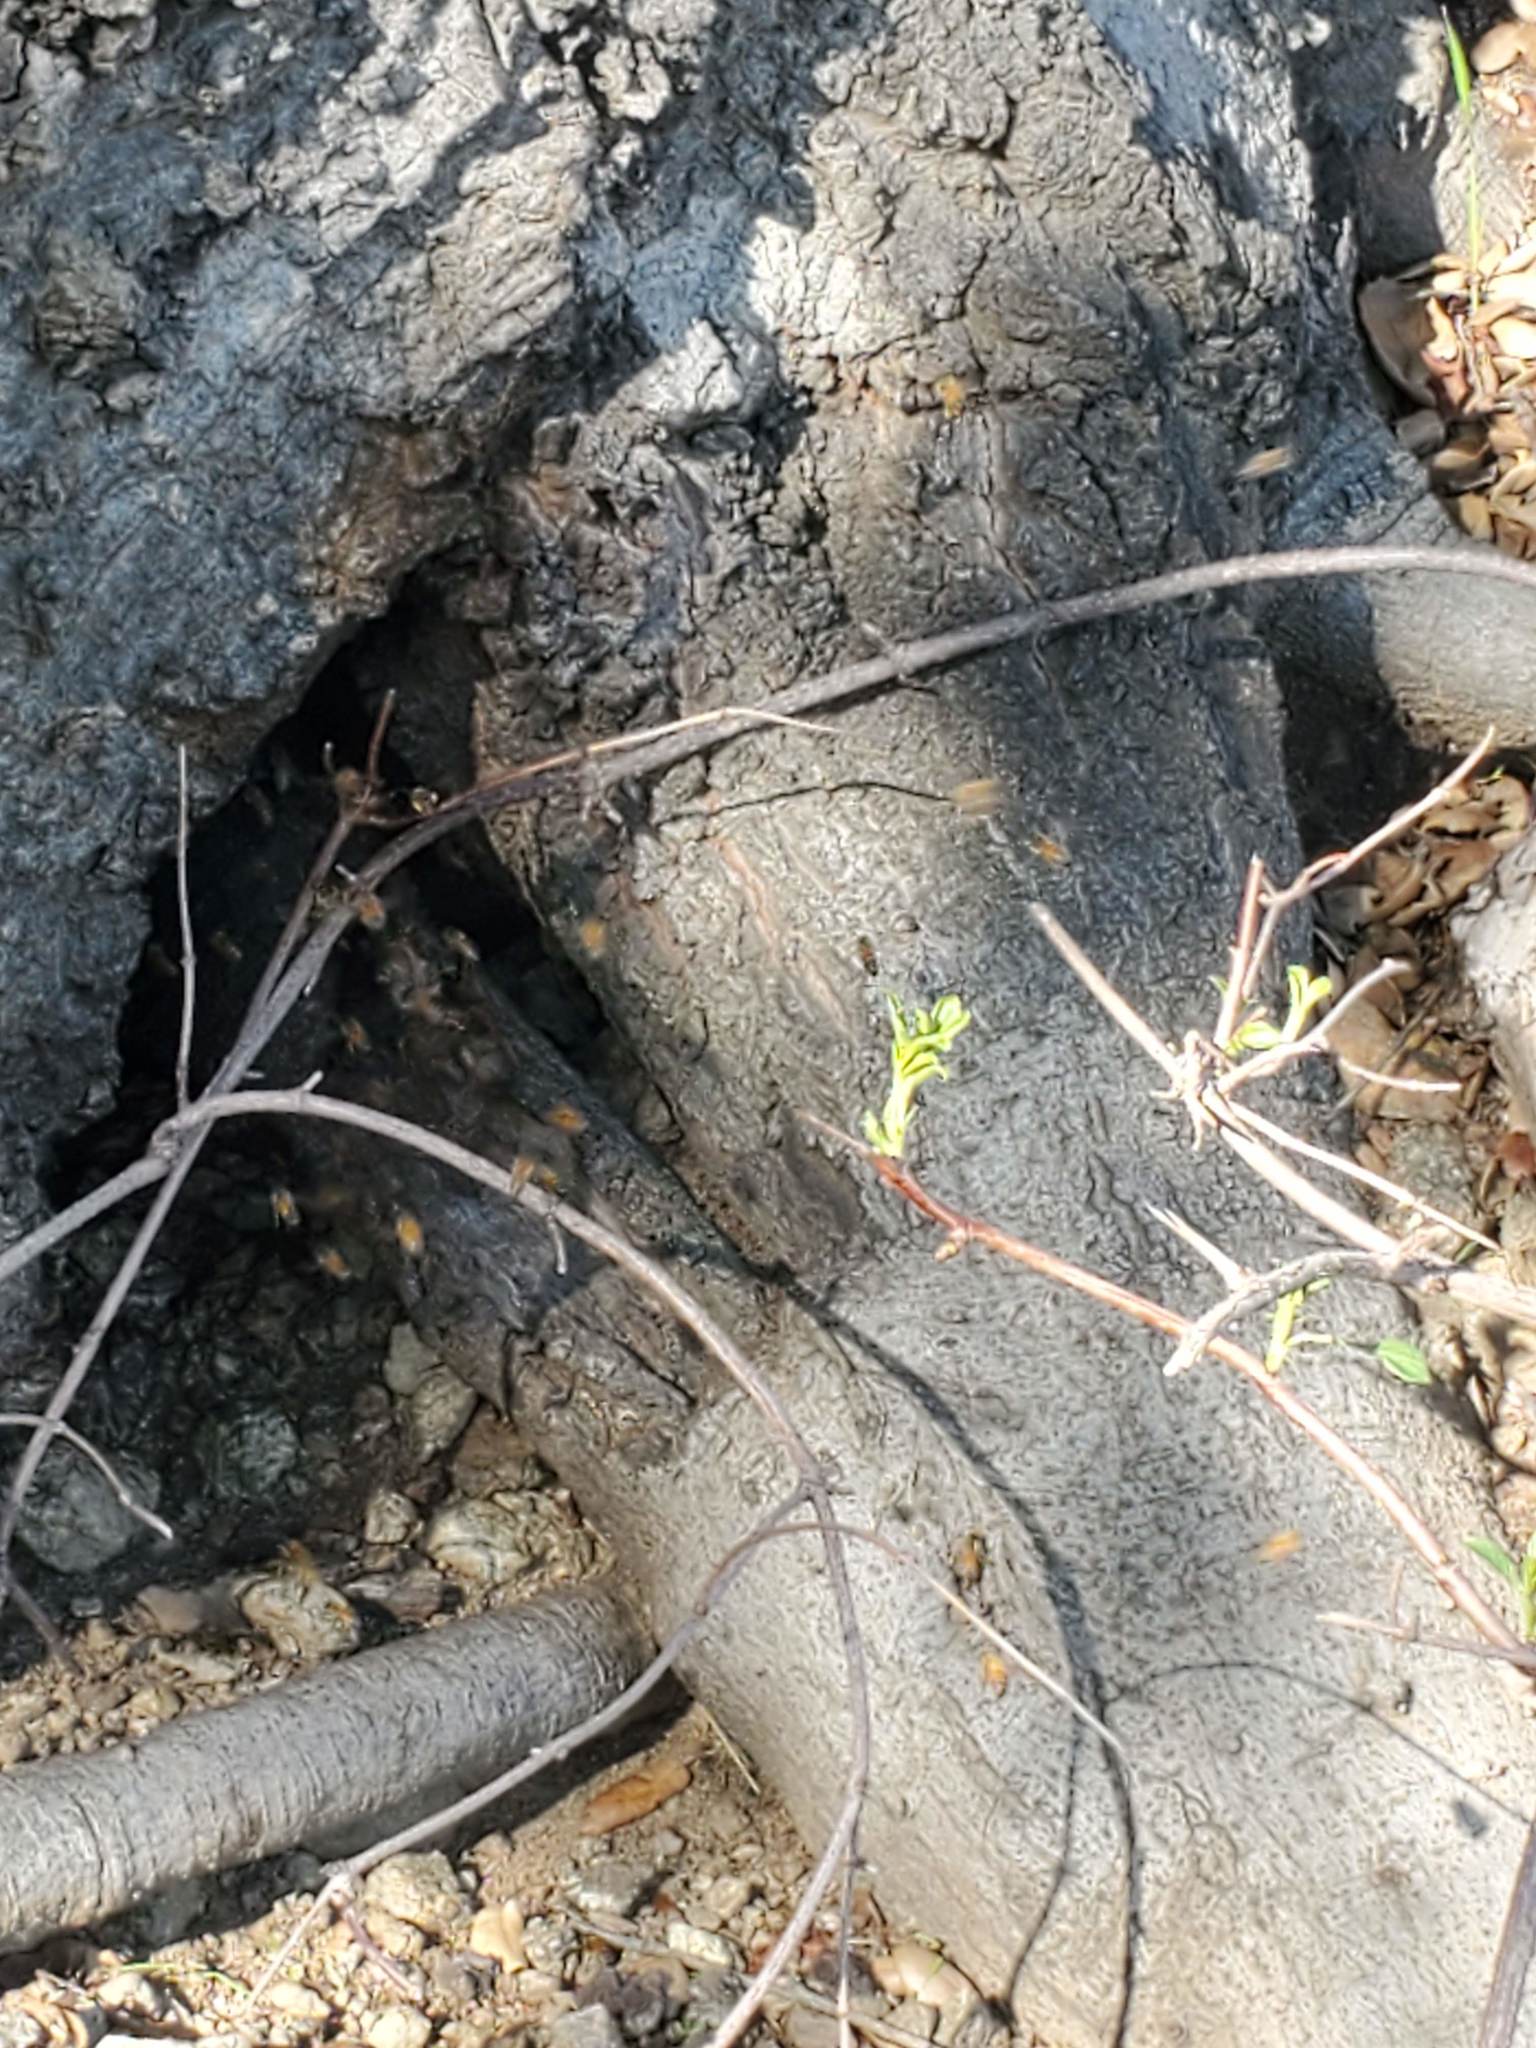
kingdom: Animalia
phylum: Arthropoda
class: Insecta
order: Hymenoptera
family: Apidae
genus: Apis
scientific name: Apis mellifera
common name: Honey bee
